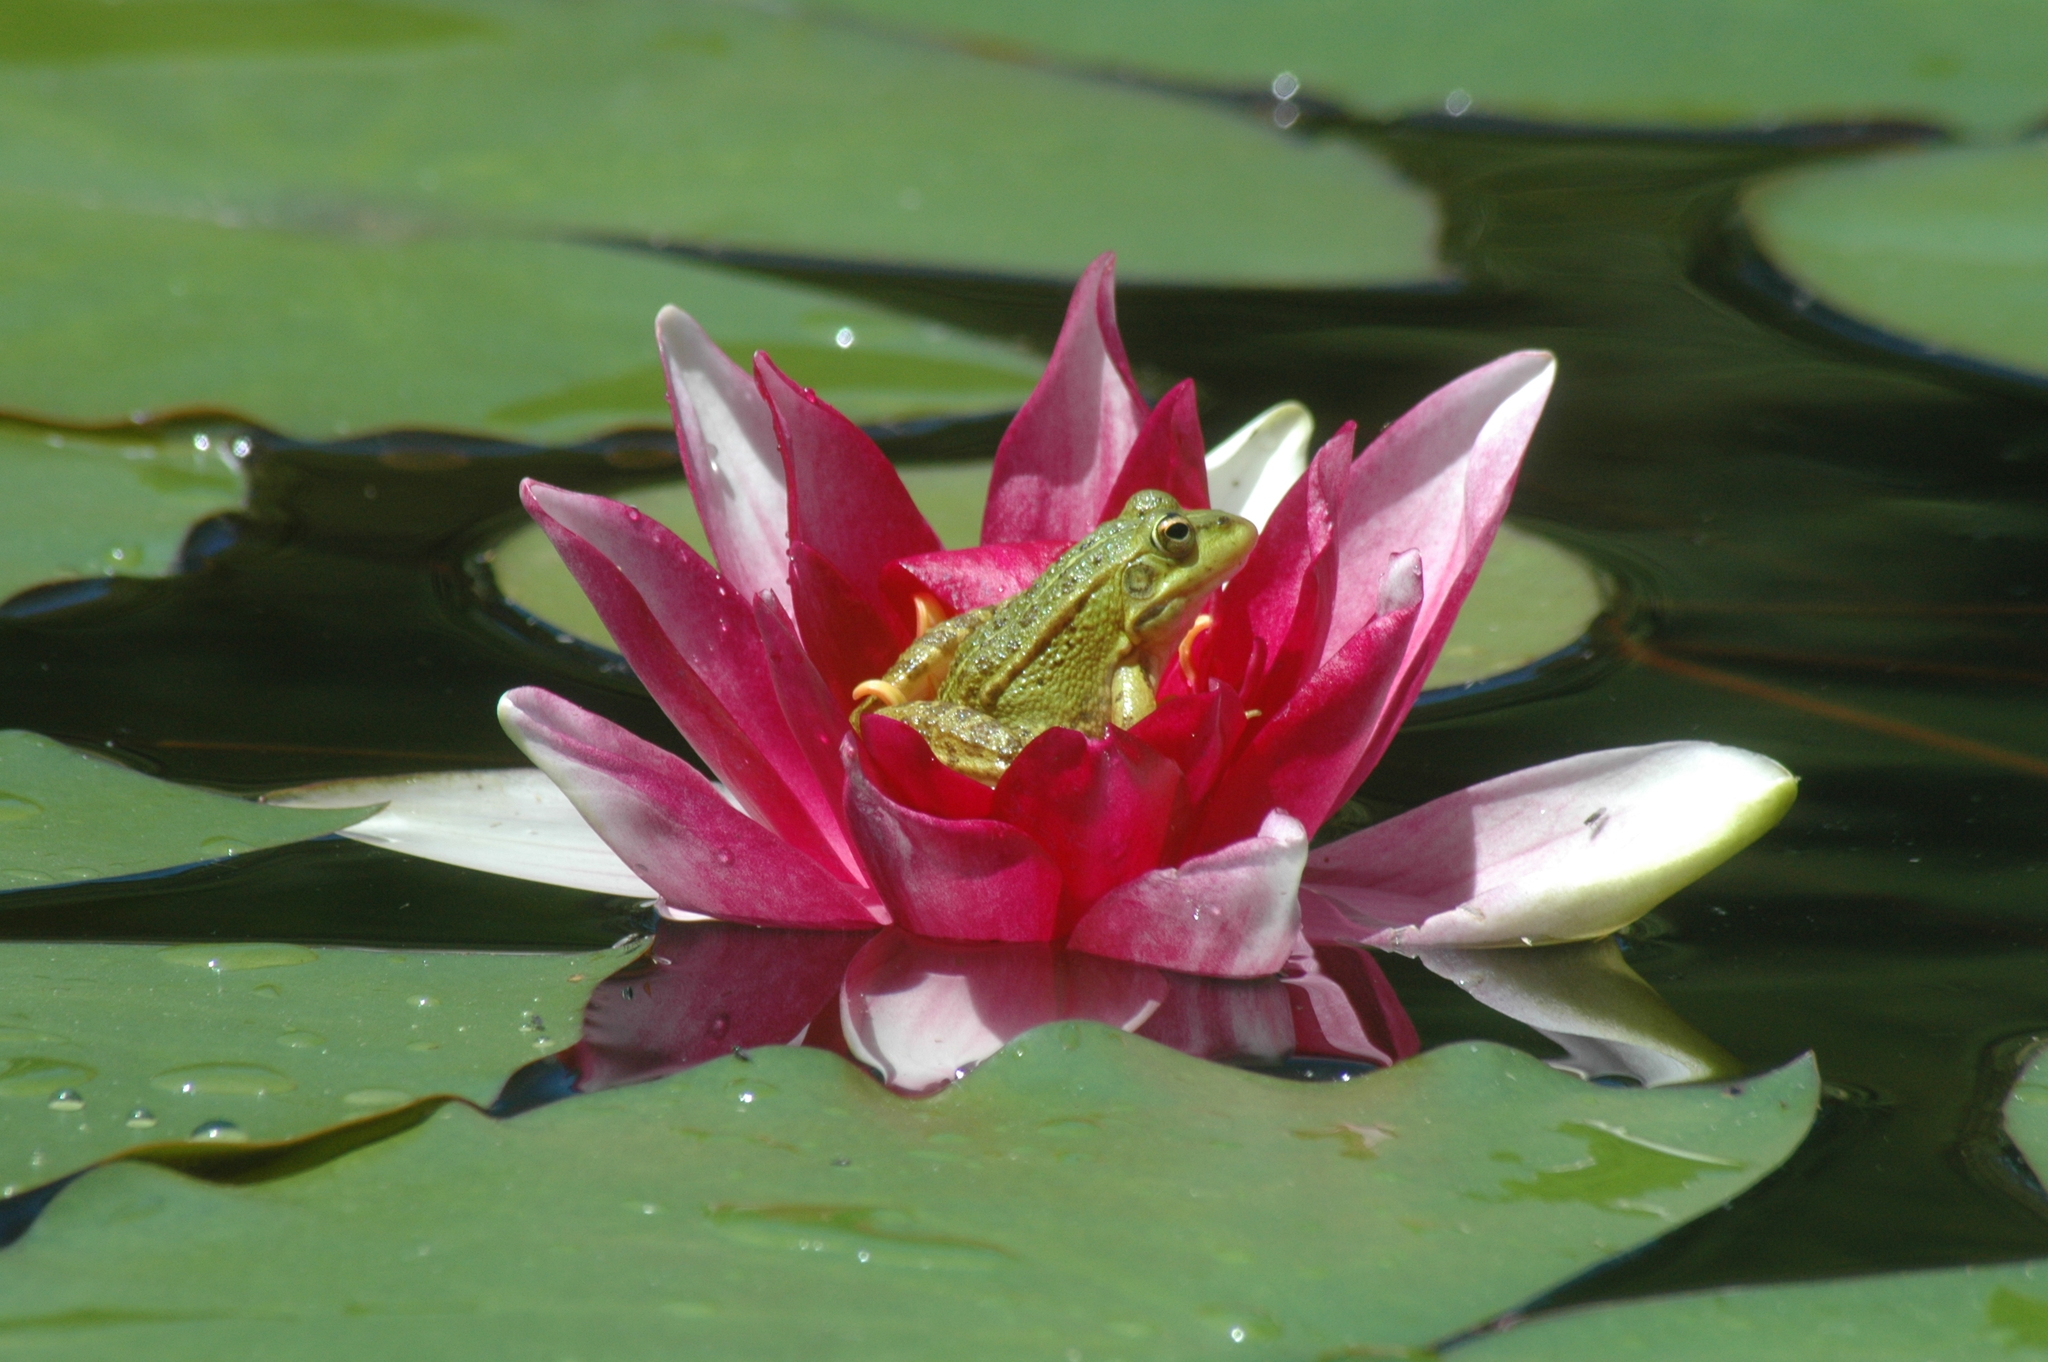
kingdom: Animalia
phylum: Chordata
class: Amphibia
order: Anura
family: Ranidae
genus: Pelophylax
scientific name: Pelophylax perezi
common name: Perez's frog
